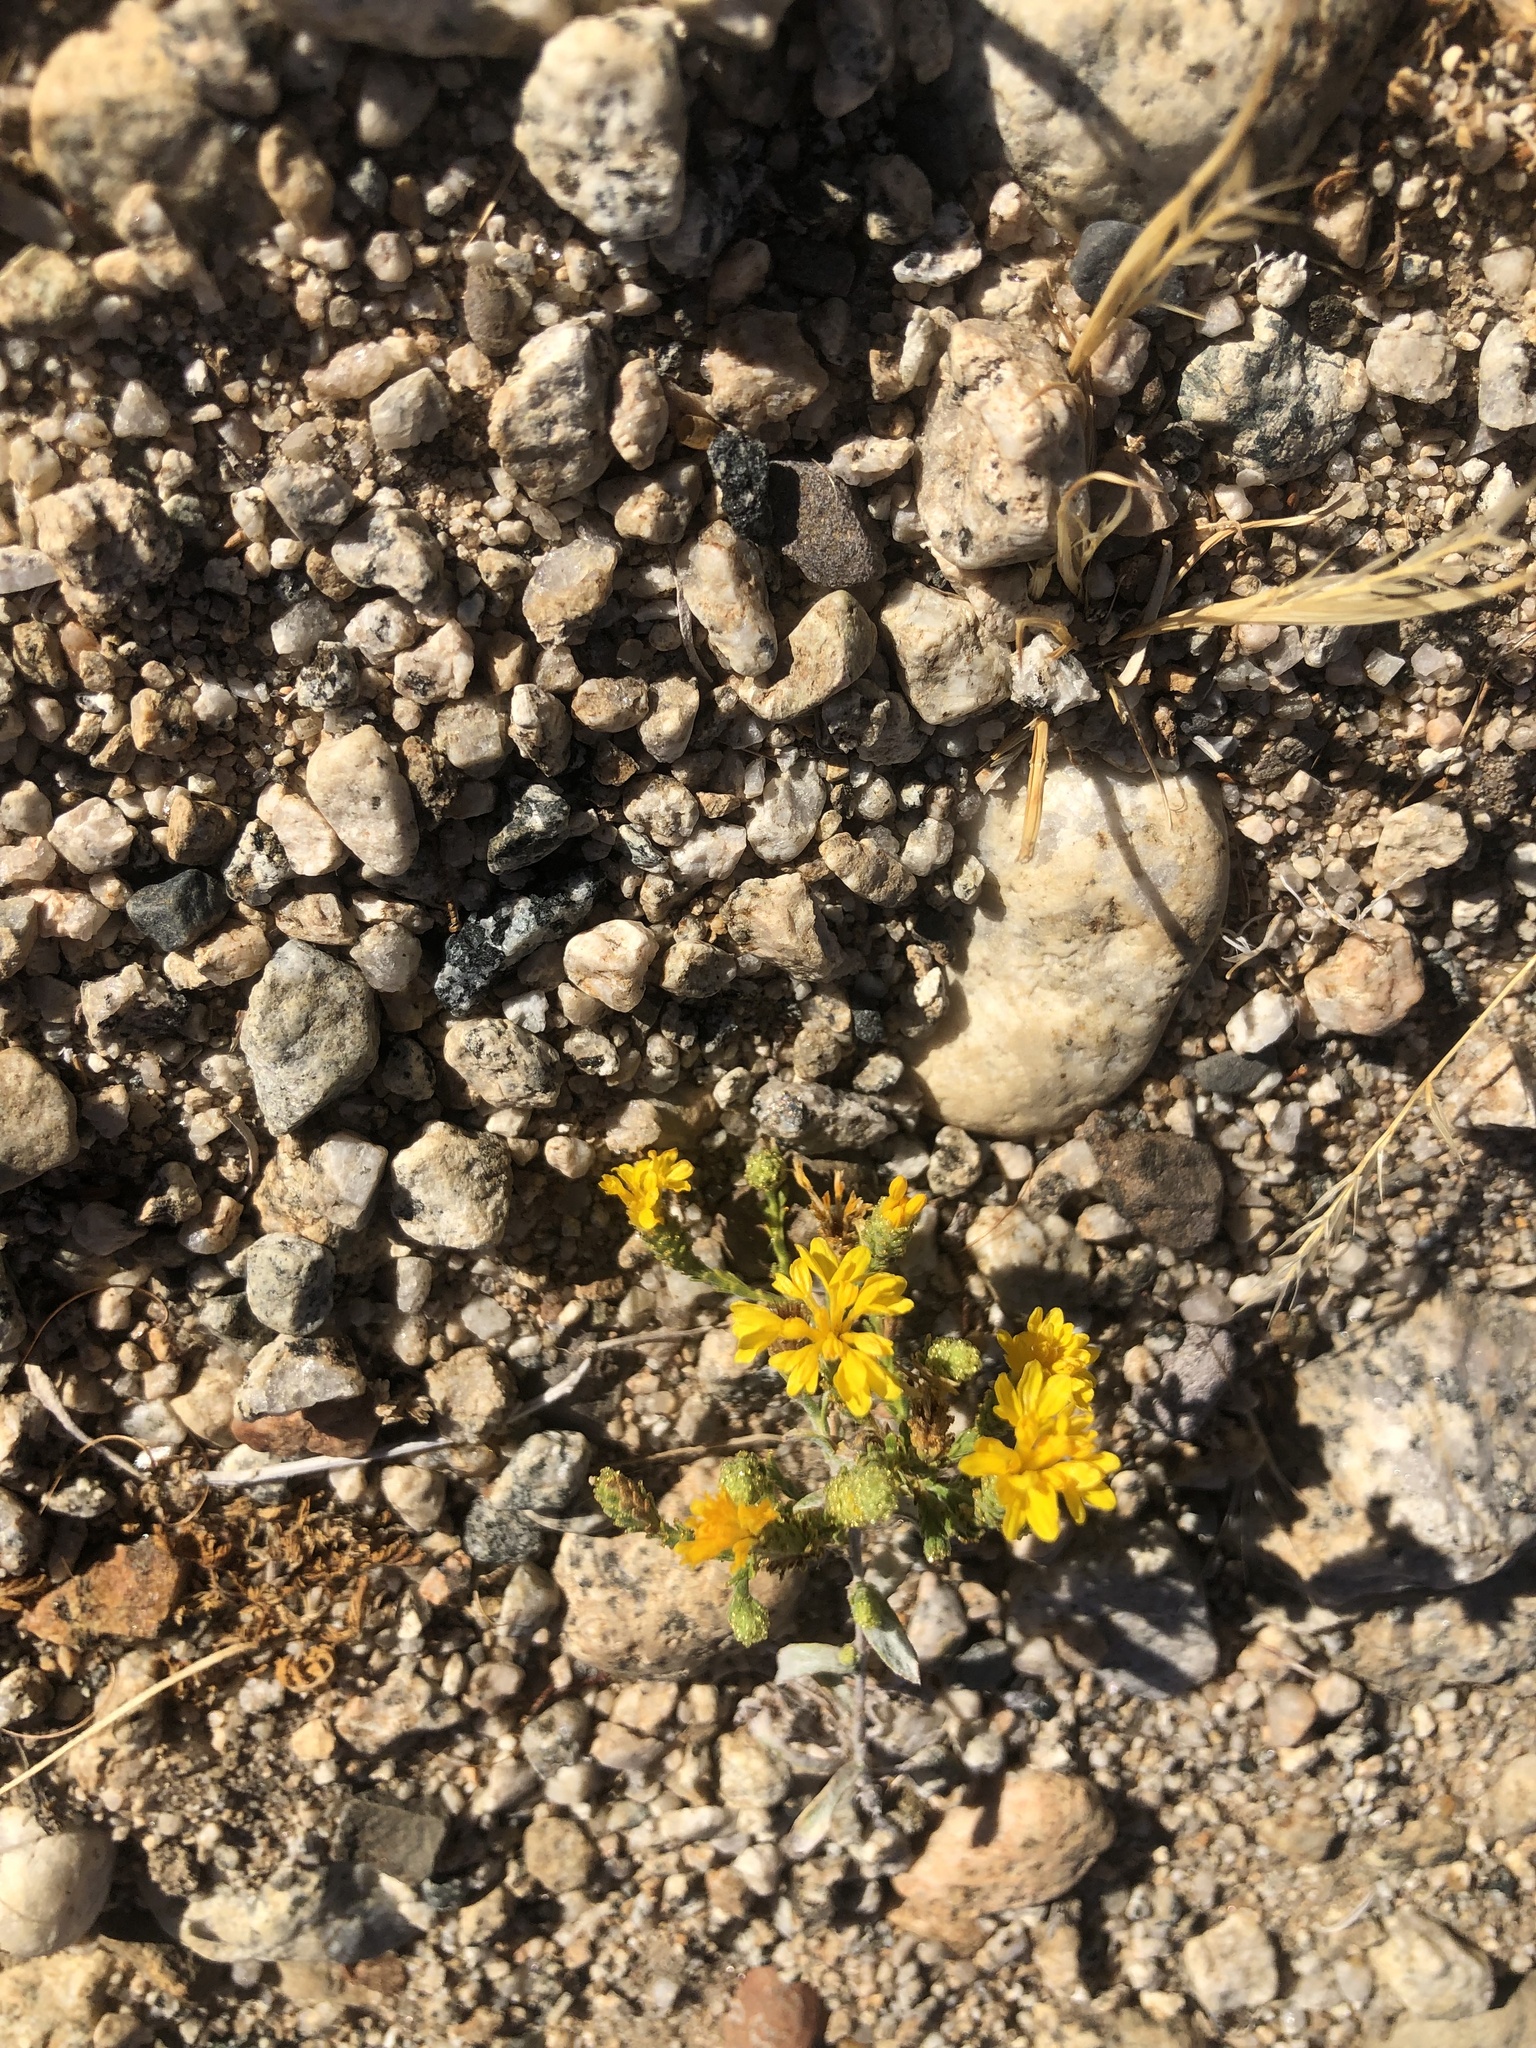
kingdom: Plantae
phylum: Tracheophyta
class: Magnoliopsida
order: Asterales
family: Asteraceae
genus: Lessingia
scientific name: Lessingia glandulifera
